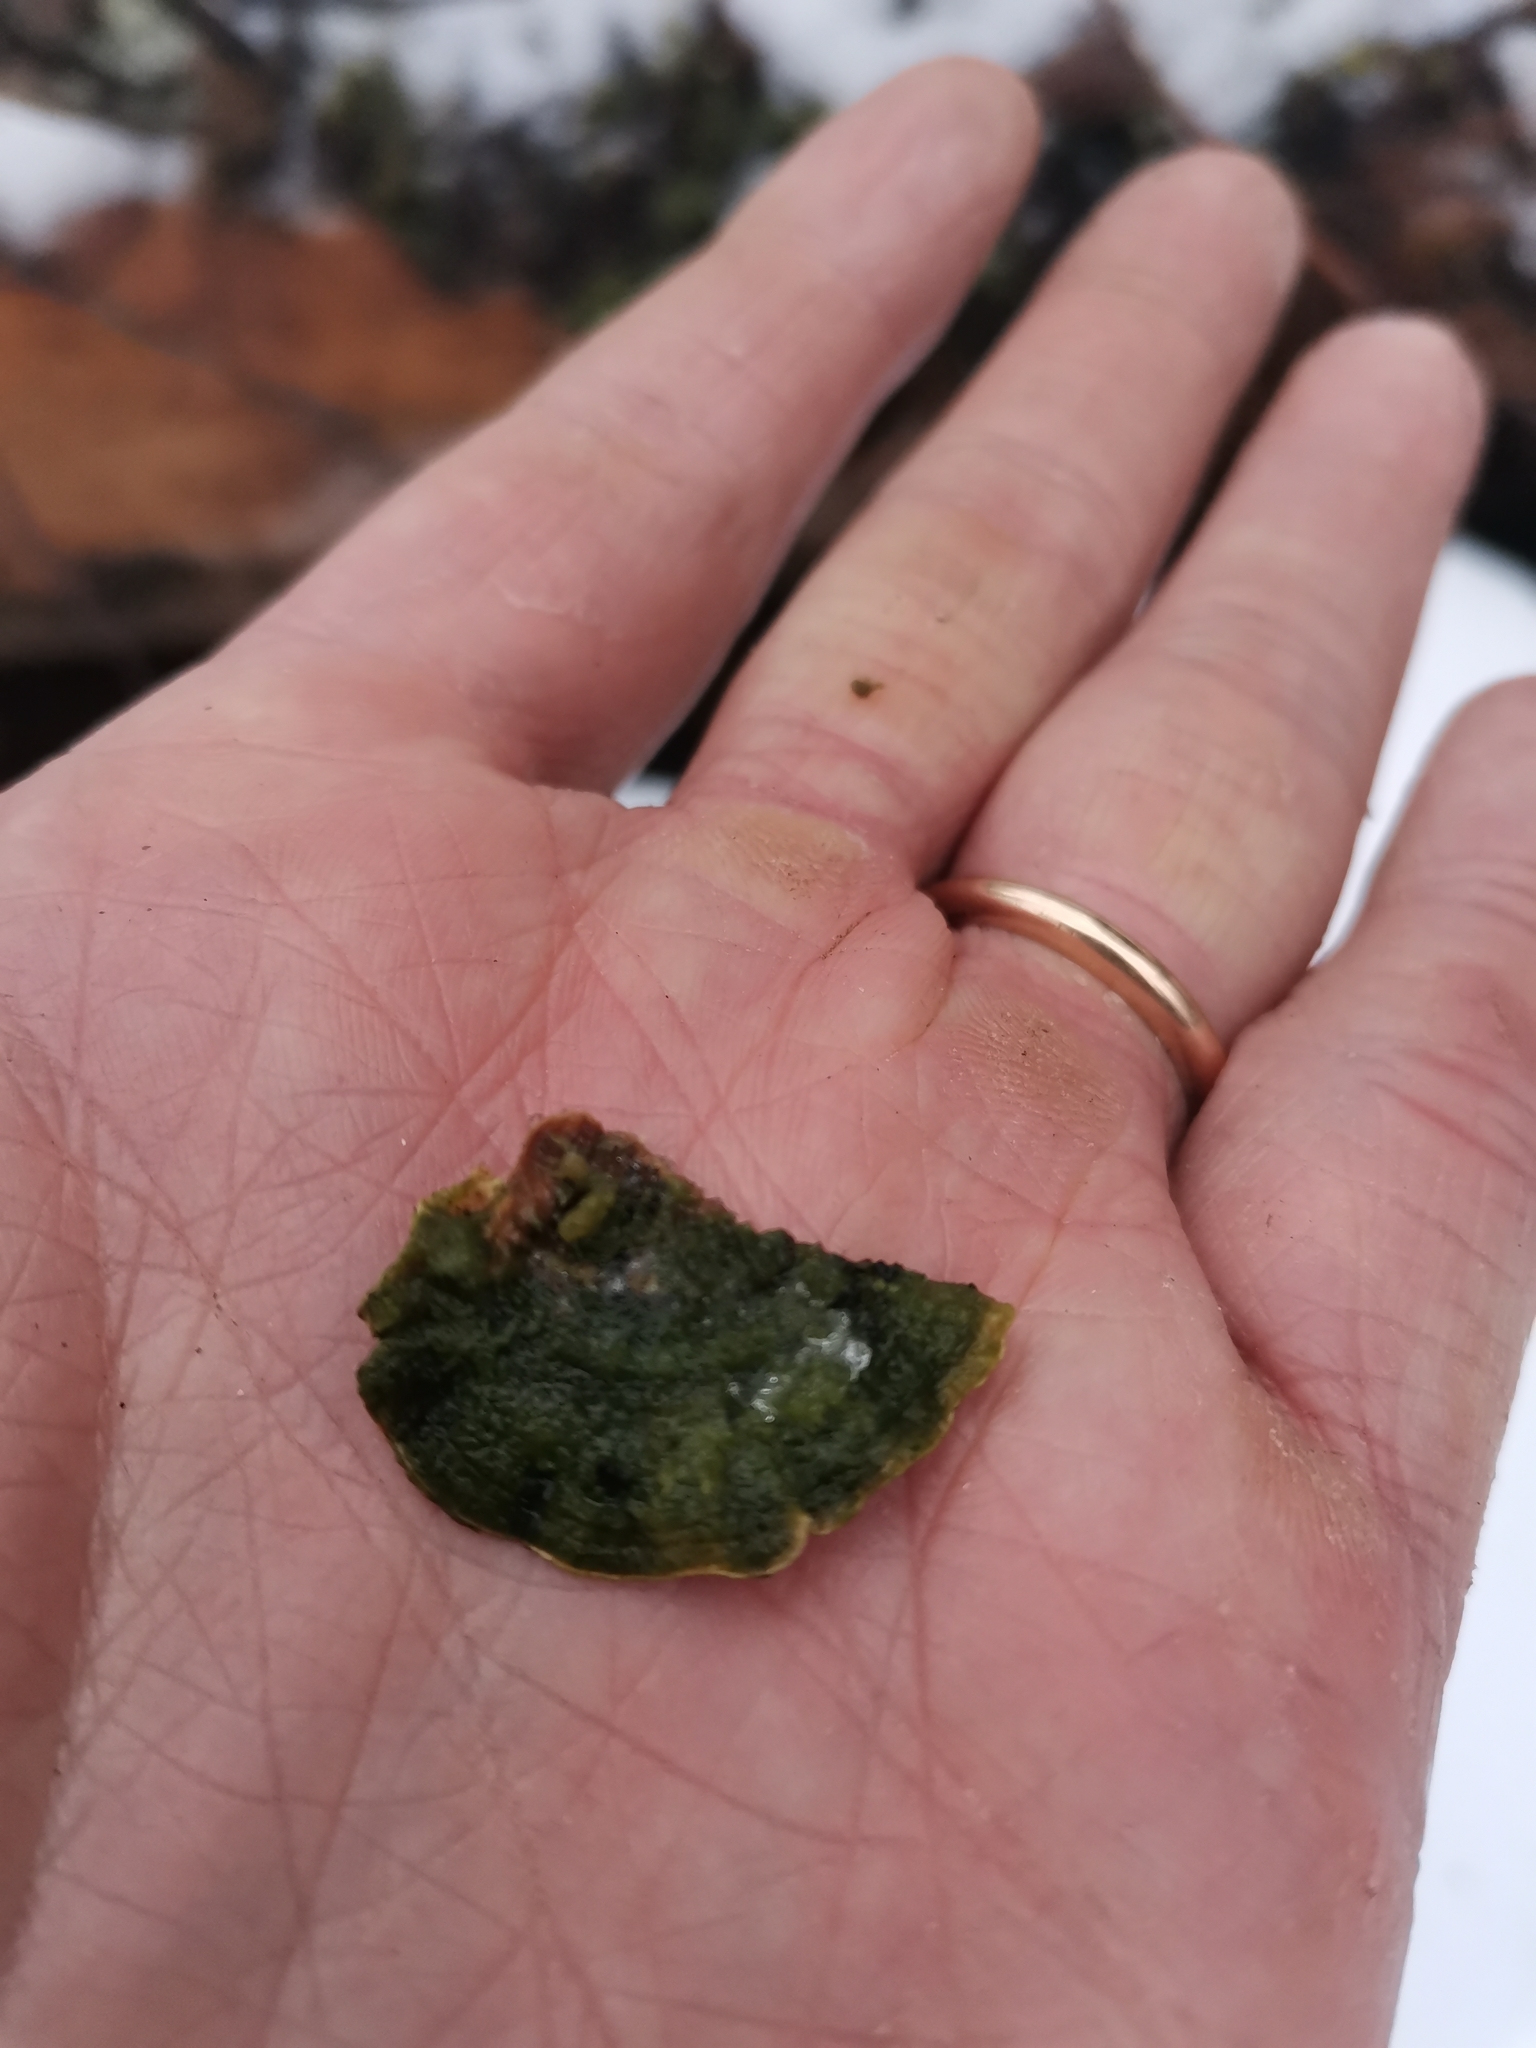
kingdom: Fungi
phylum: Basidiomycota
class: Agaricomycetes
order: Hymenochaetales
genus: Trichaptum
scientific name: Trichaptum abietinum
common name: Purplepore bracket
